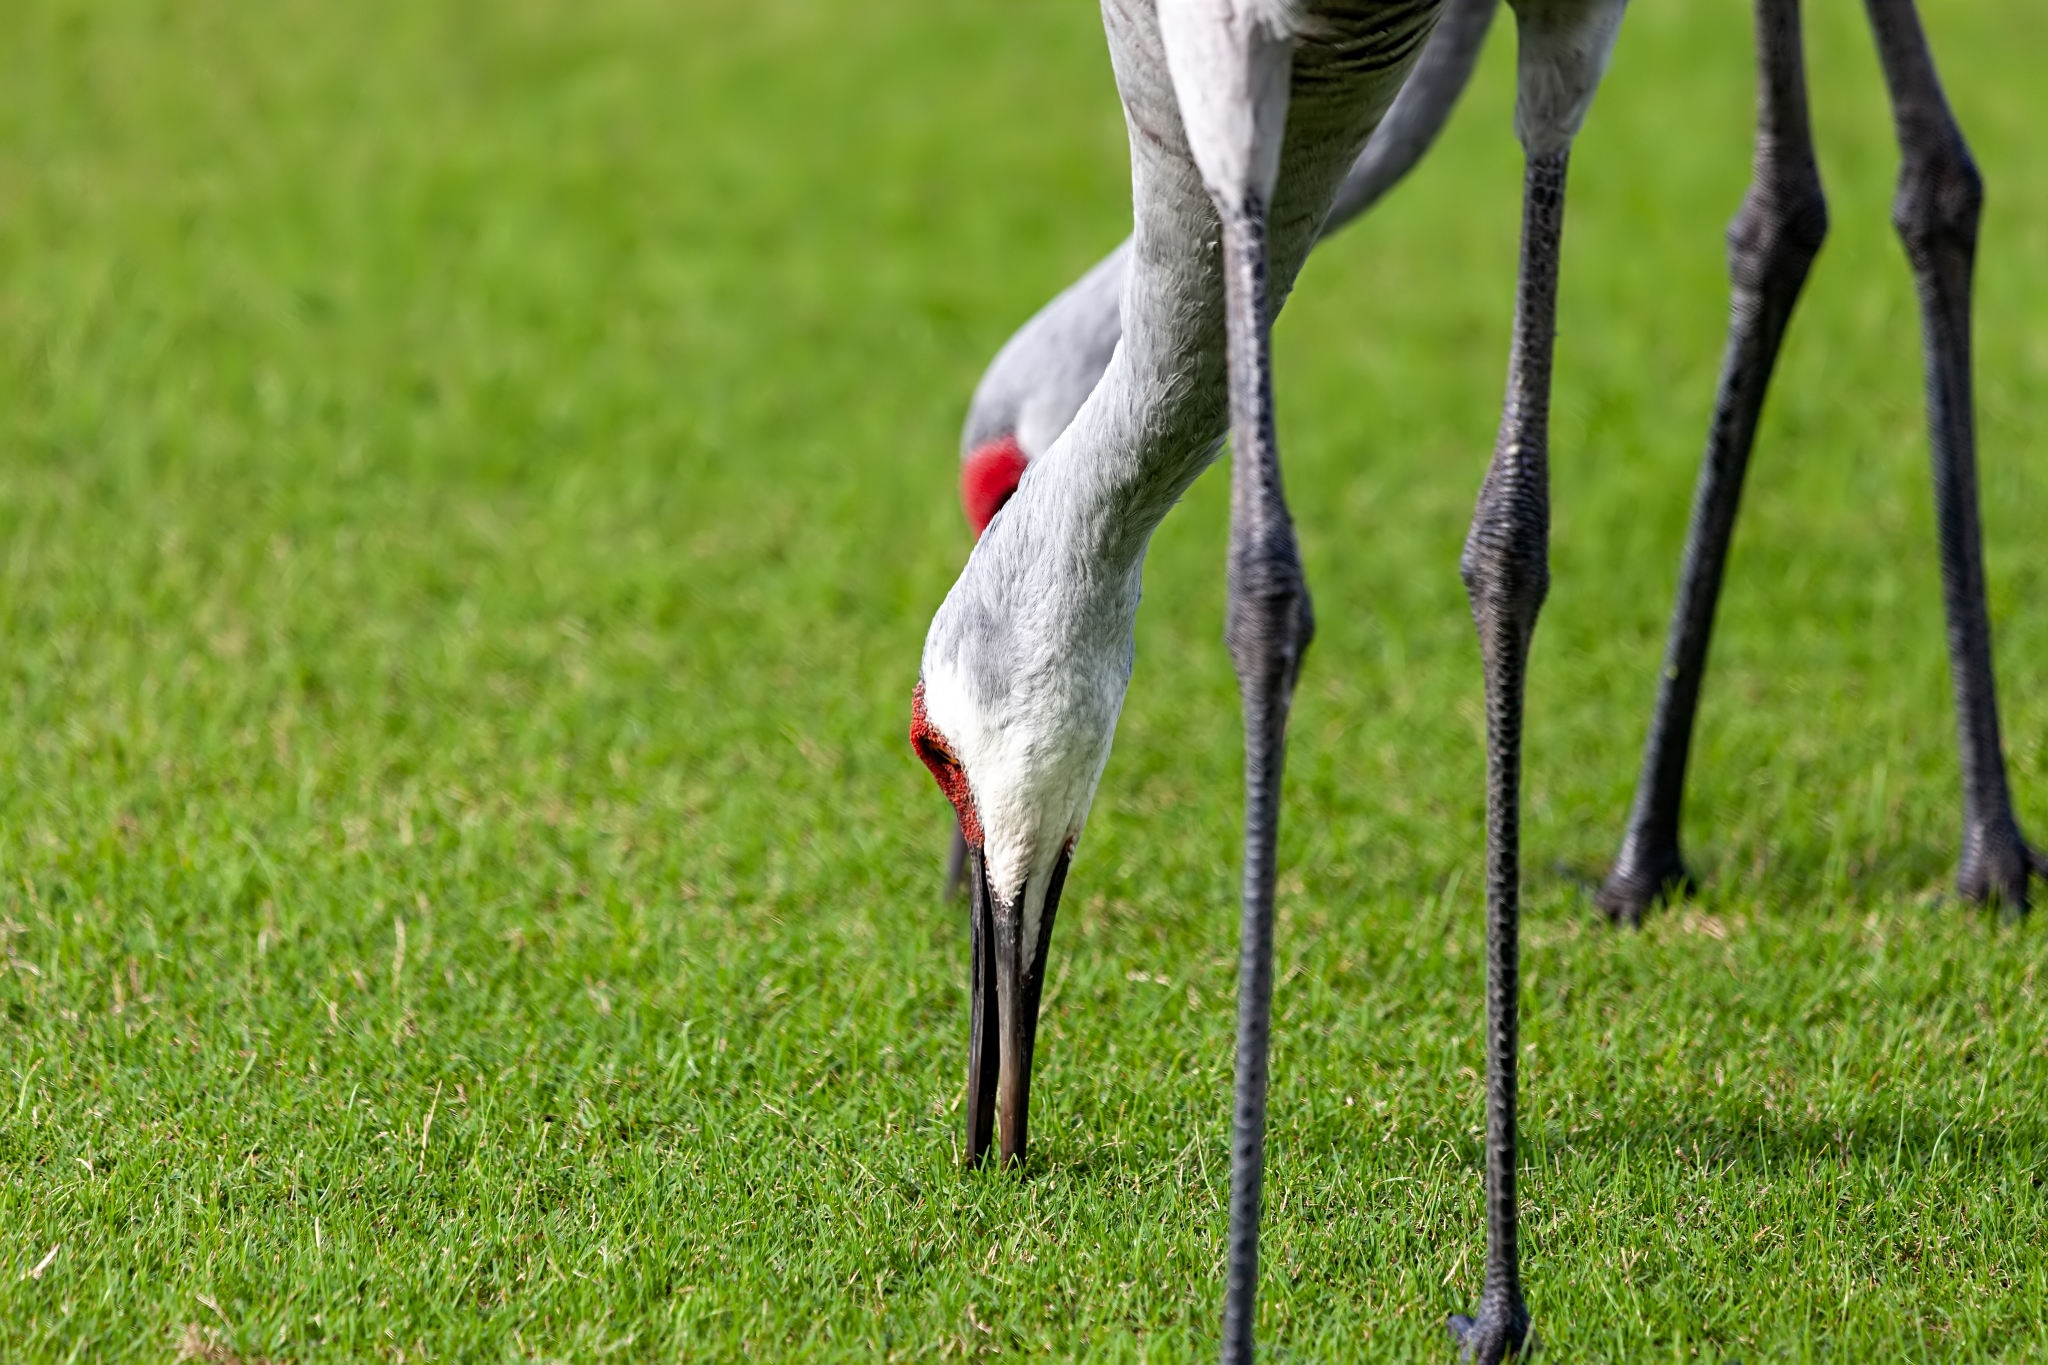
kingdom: Animalia
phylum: Chordata
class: Aves
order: Gruiformes
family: Gruidae
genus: Grus
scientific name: Grus canadensis
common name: Sandhill crane
